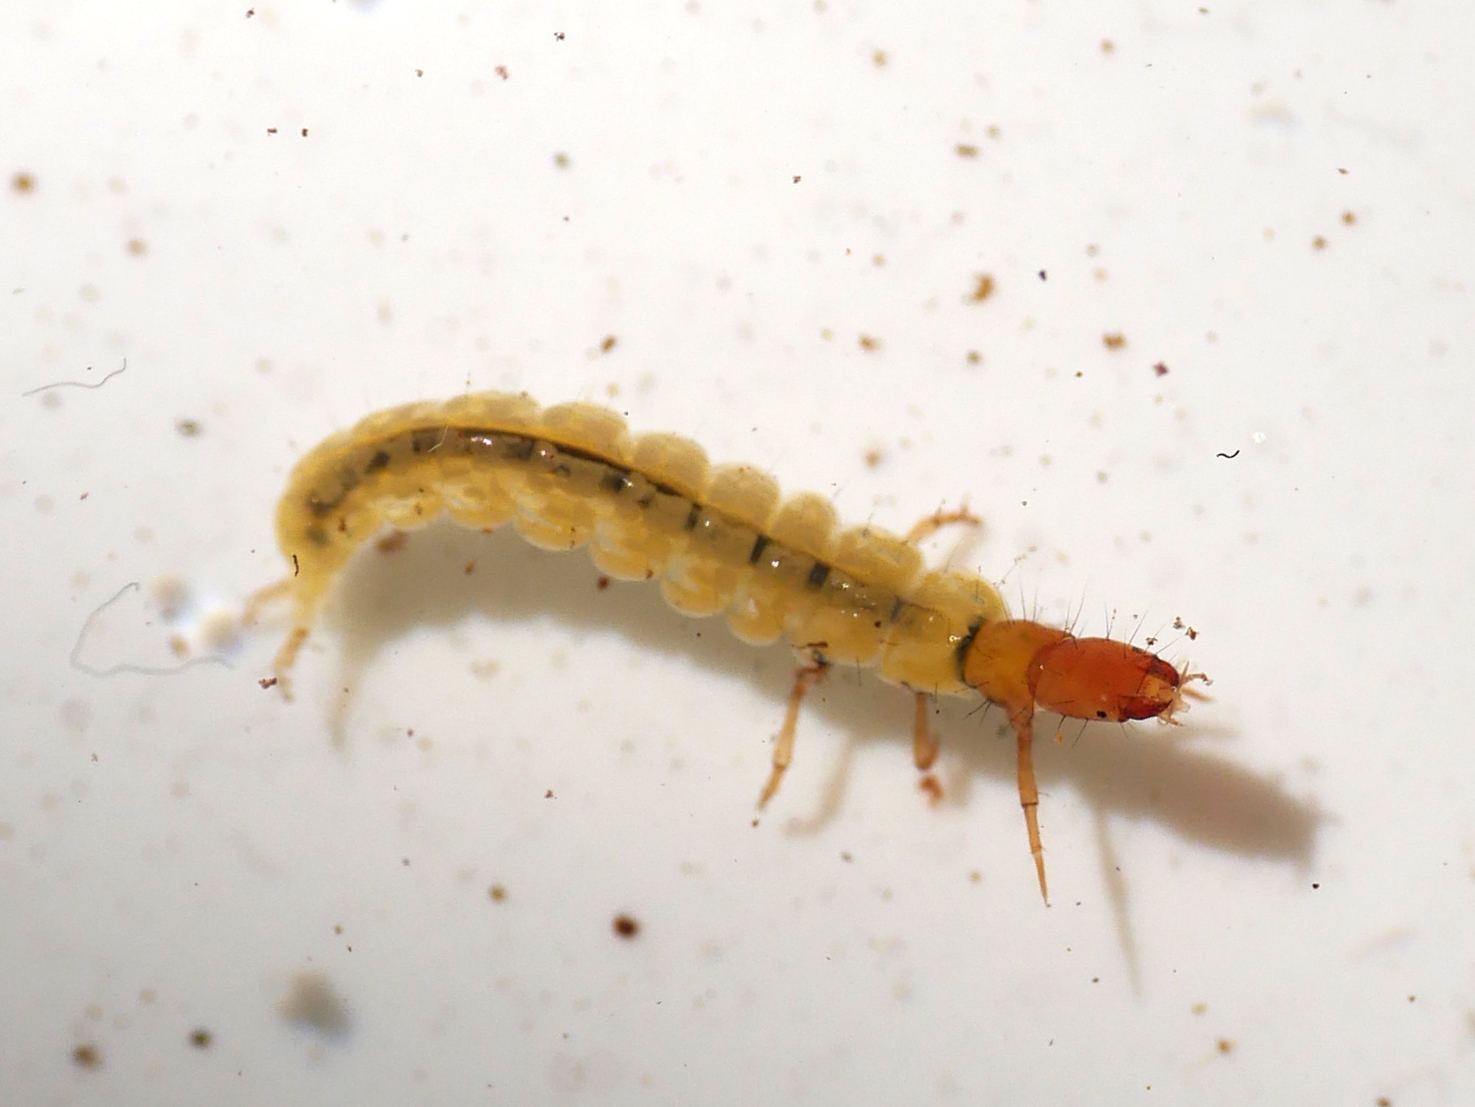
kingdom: Animalia
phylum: Arthropoda
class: Insecta
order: Trichoptera
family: Philopotamidae
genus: Wormaldia
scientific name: Wormaldia occipitalis
